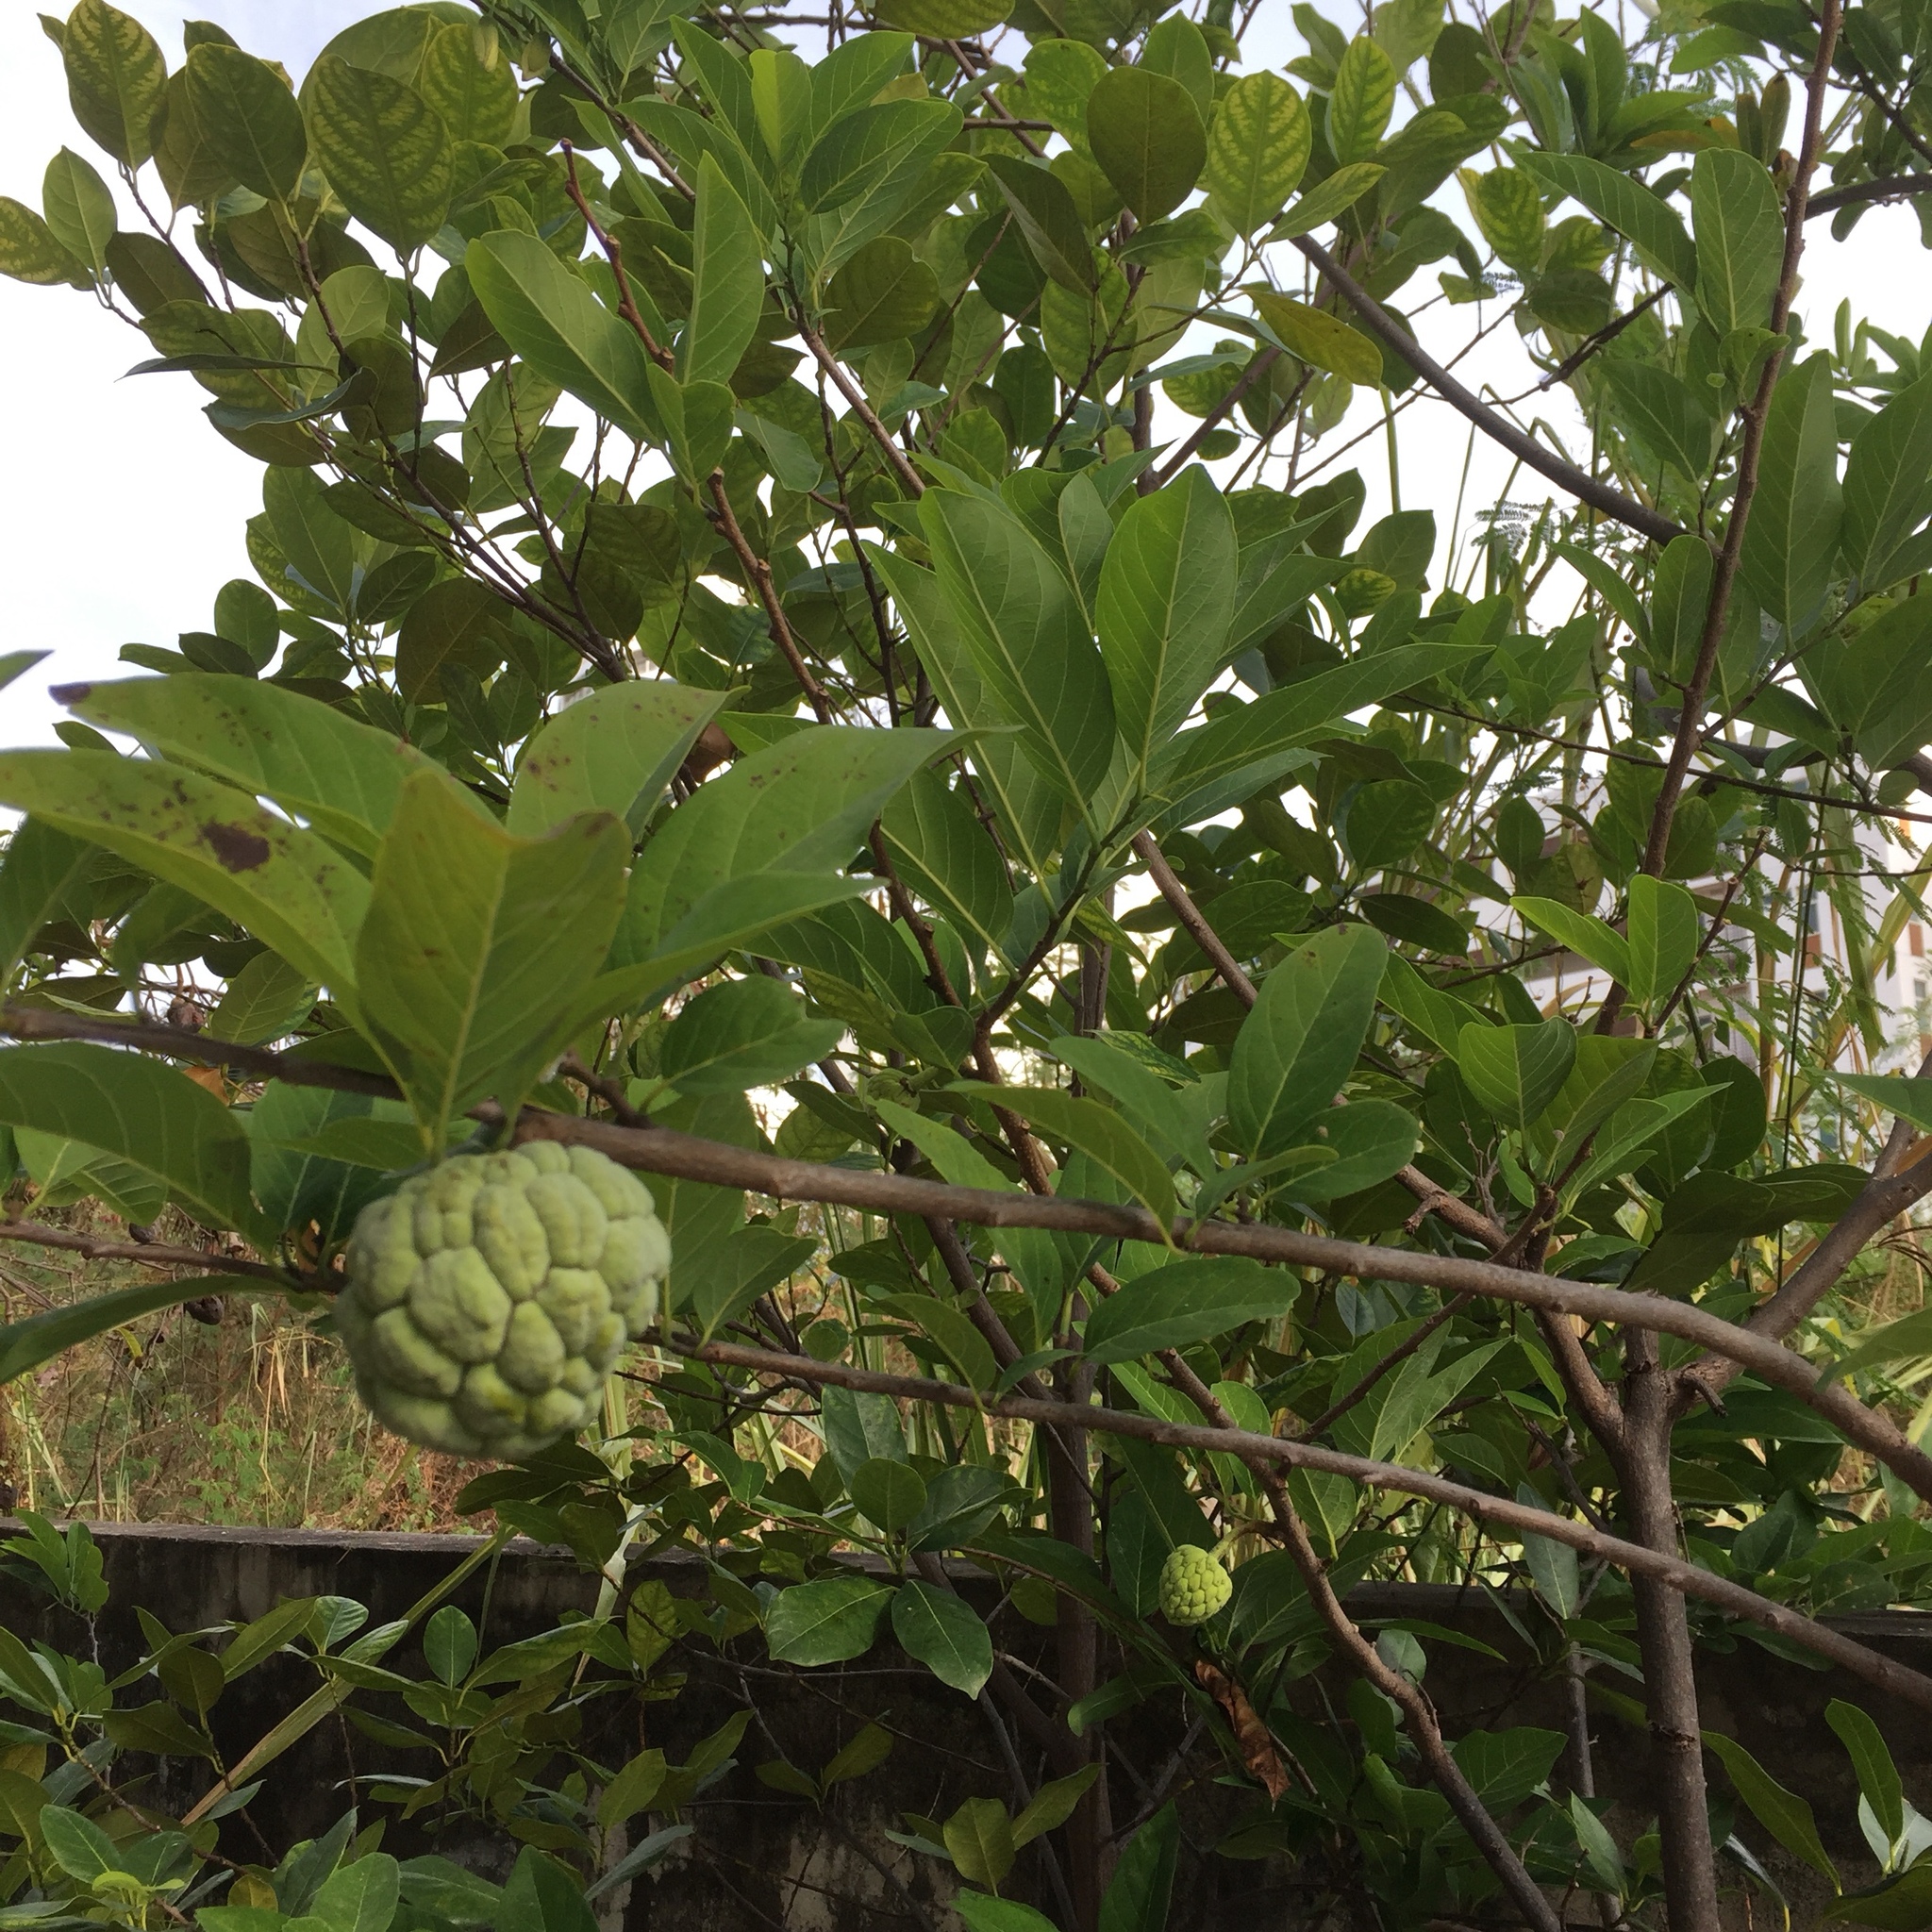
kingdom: Plantae
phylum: Tracheophyta
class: Magnoliopsida
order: Magnoliales
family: Annonaceae
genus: Annona
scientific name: Annona squamosa
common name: Custard-apple
